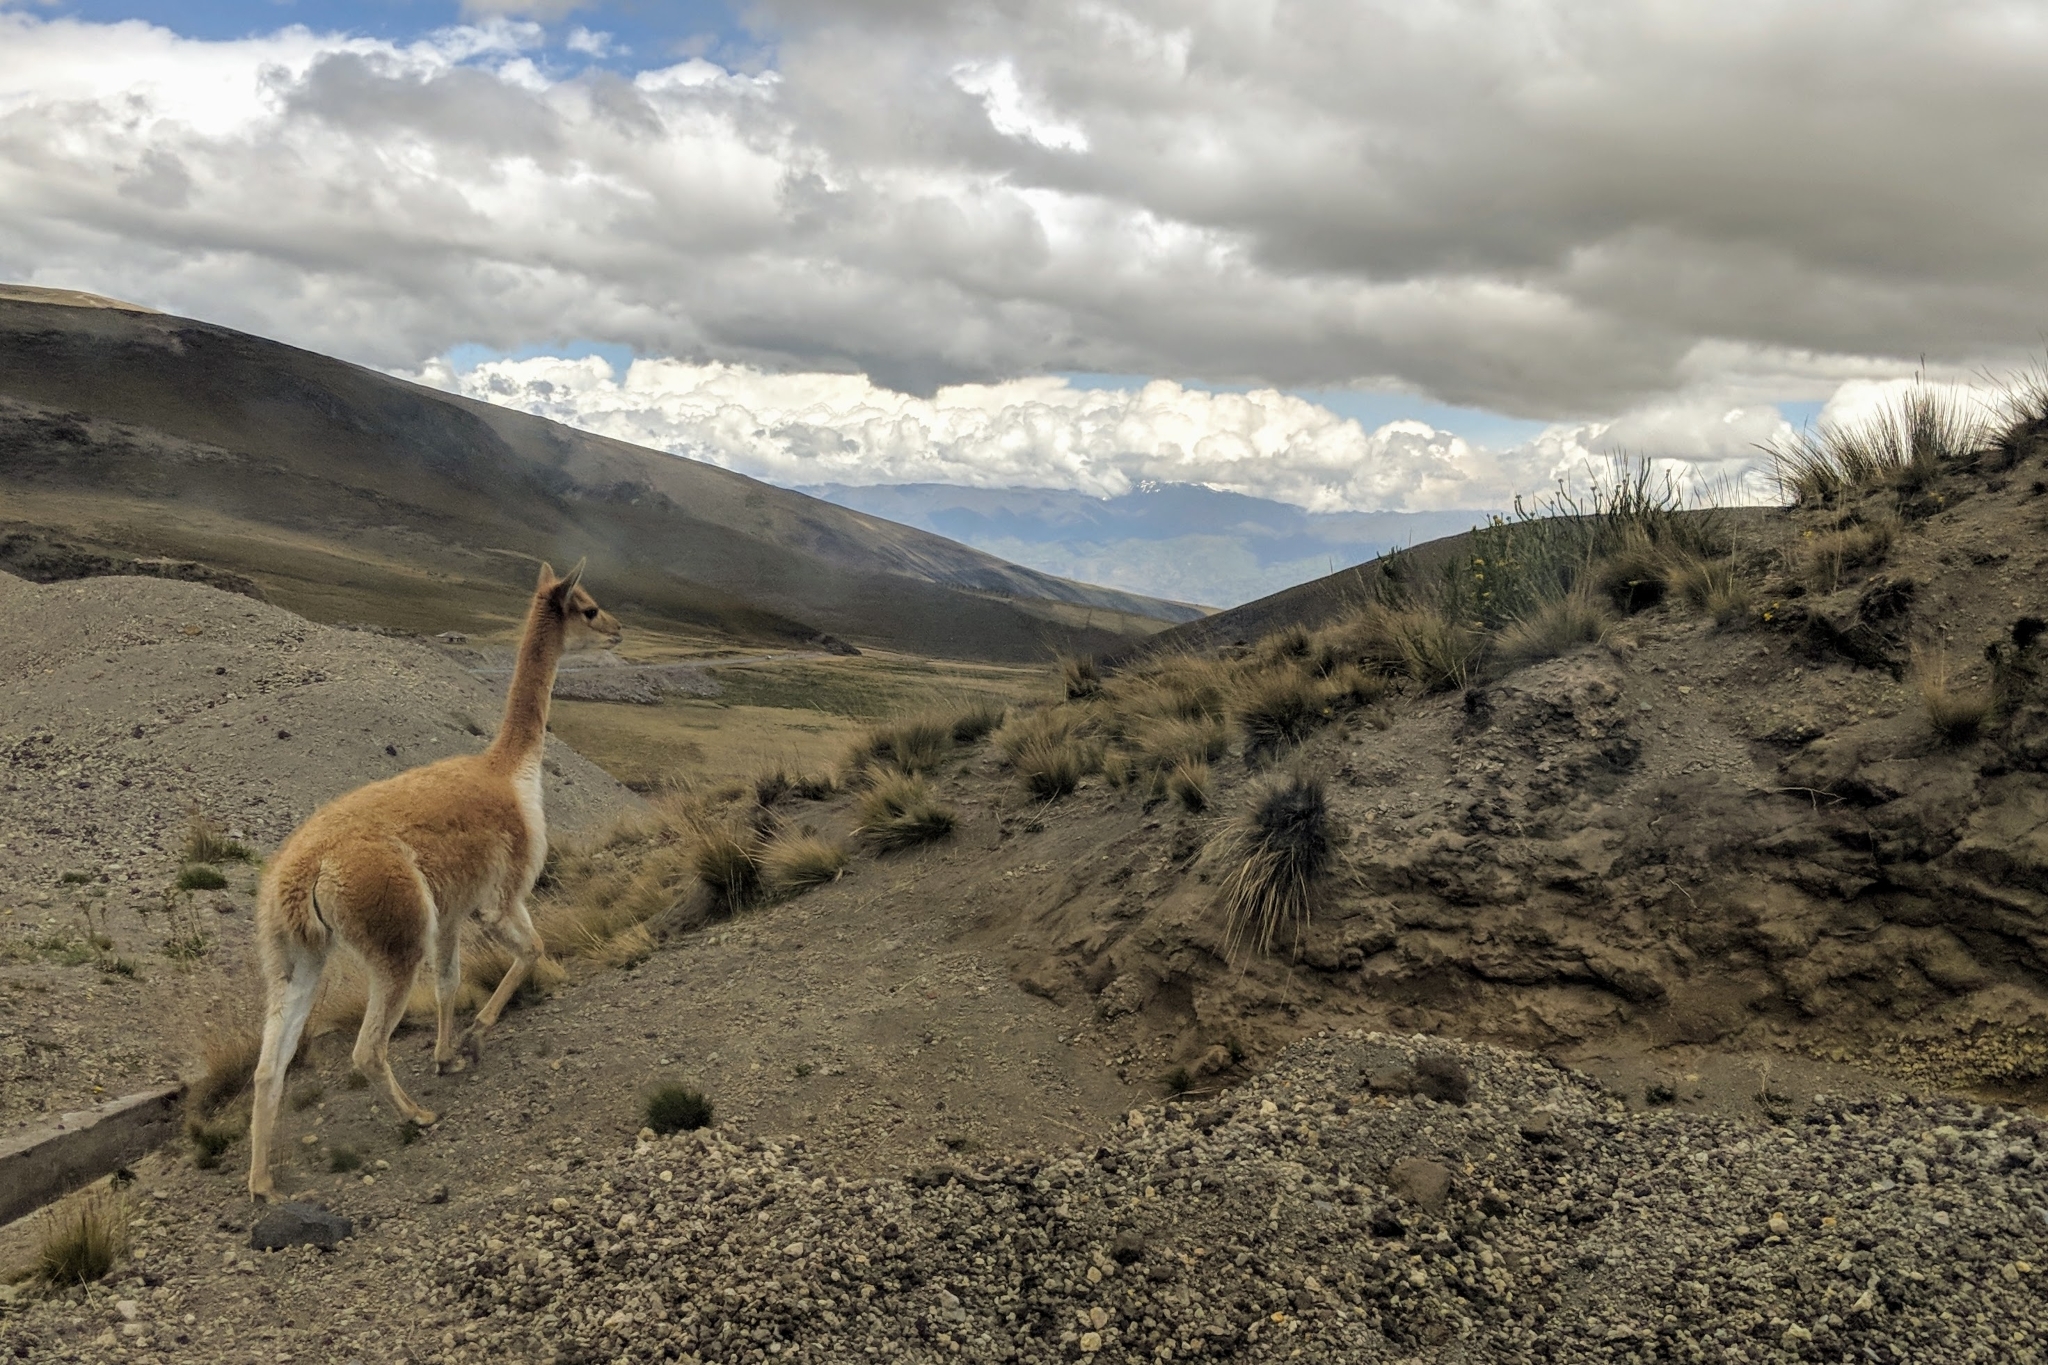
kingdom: Animalia
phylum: Chordata
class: Mammalia
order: Artiodactyla
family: Camelidae
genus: Vicugna
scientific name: Vicugna vicugna
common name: Vicugna
